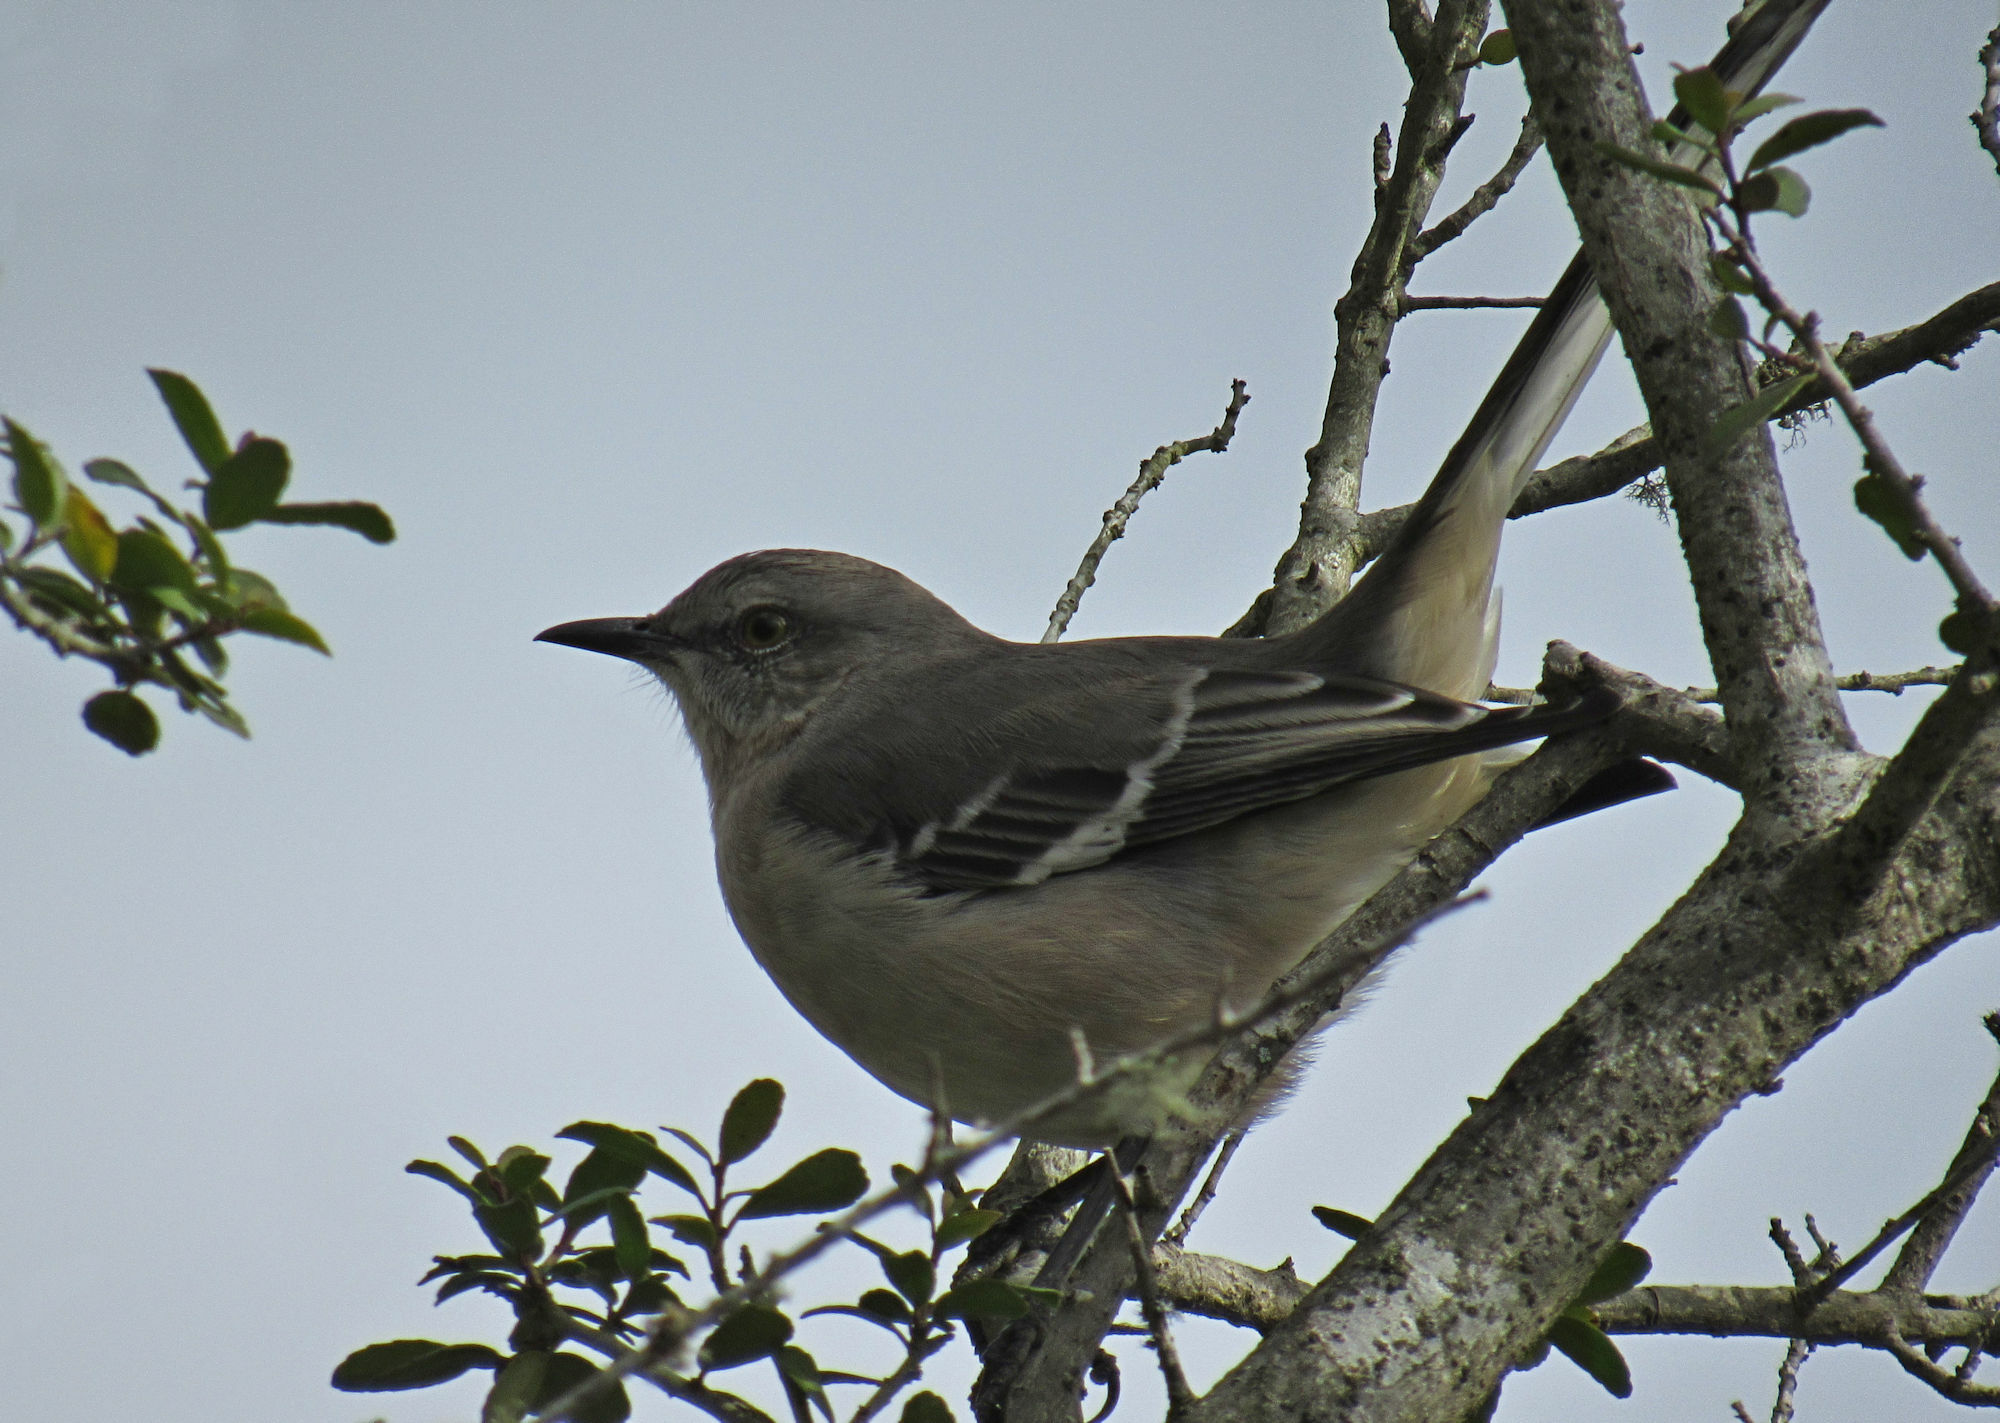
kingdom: Animalia
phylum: Chordata
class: Aves
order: Passeriformes
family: Mimidae
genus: Mimus
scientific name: Mimus polyglottos
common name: Northern mockingbird
